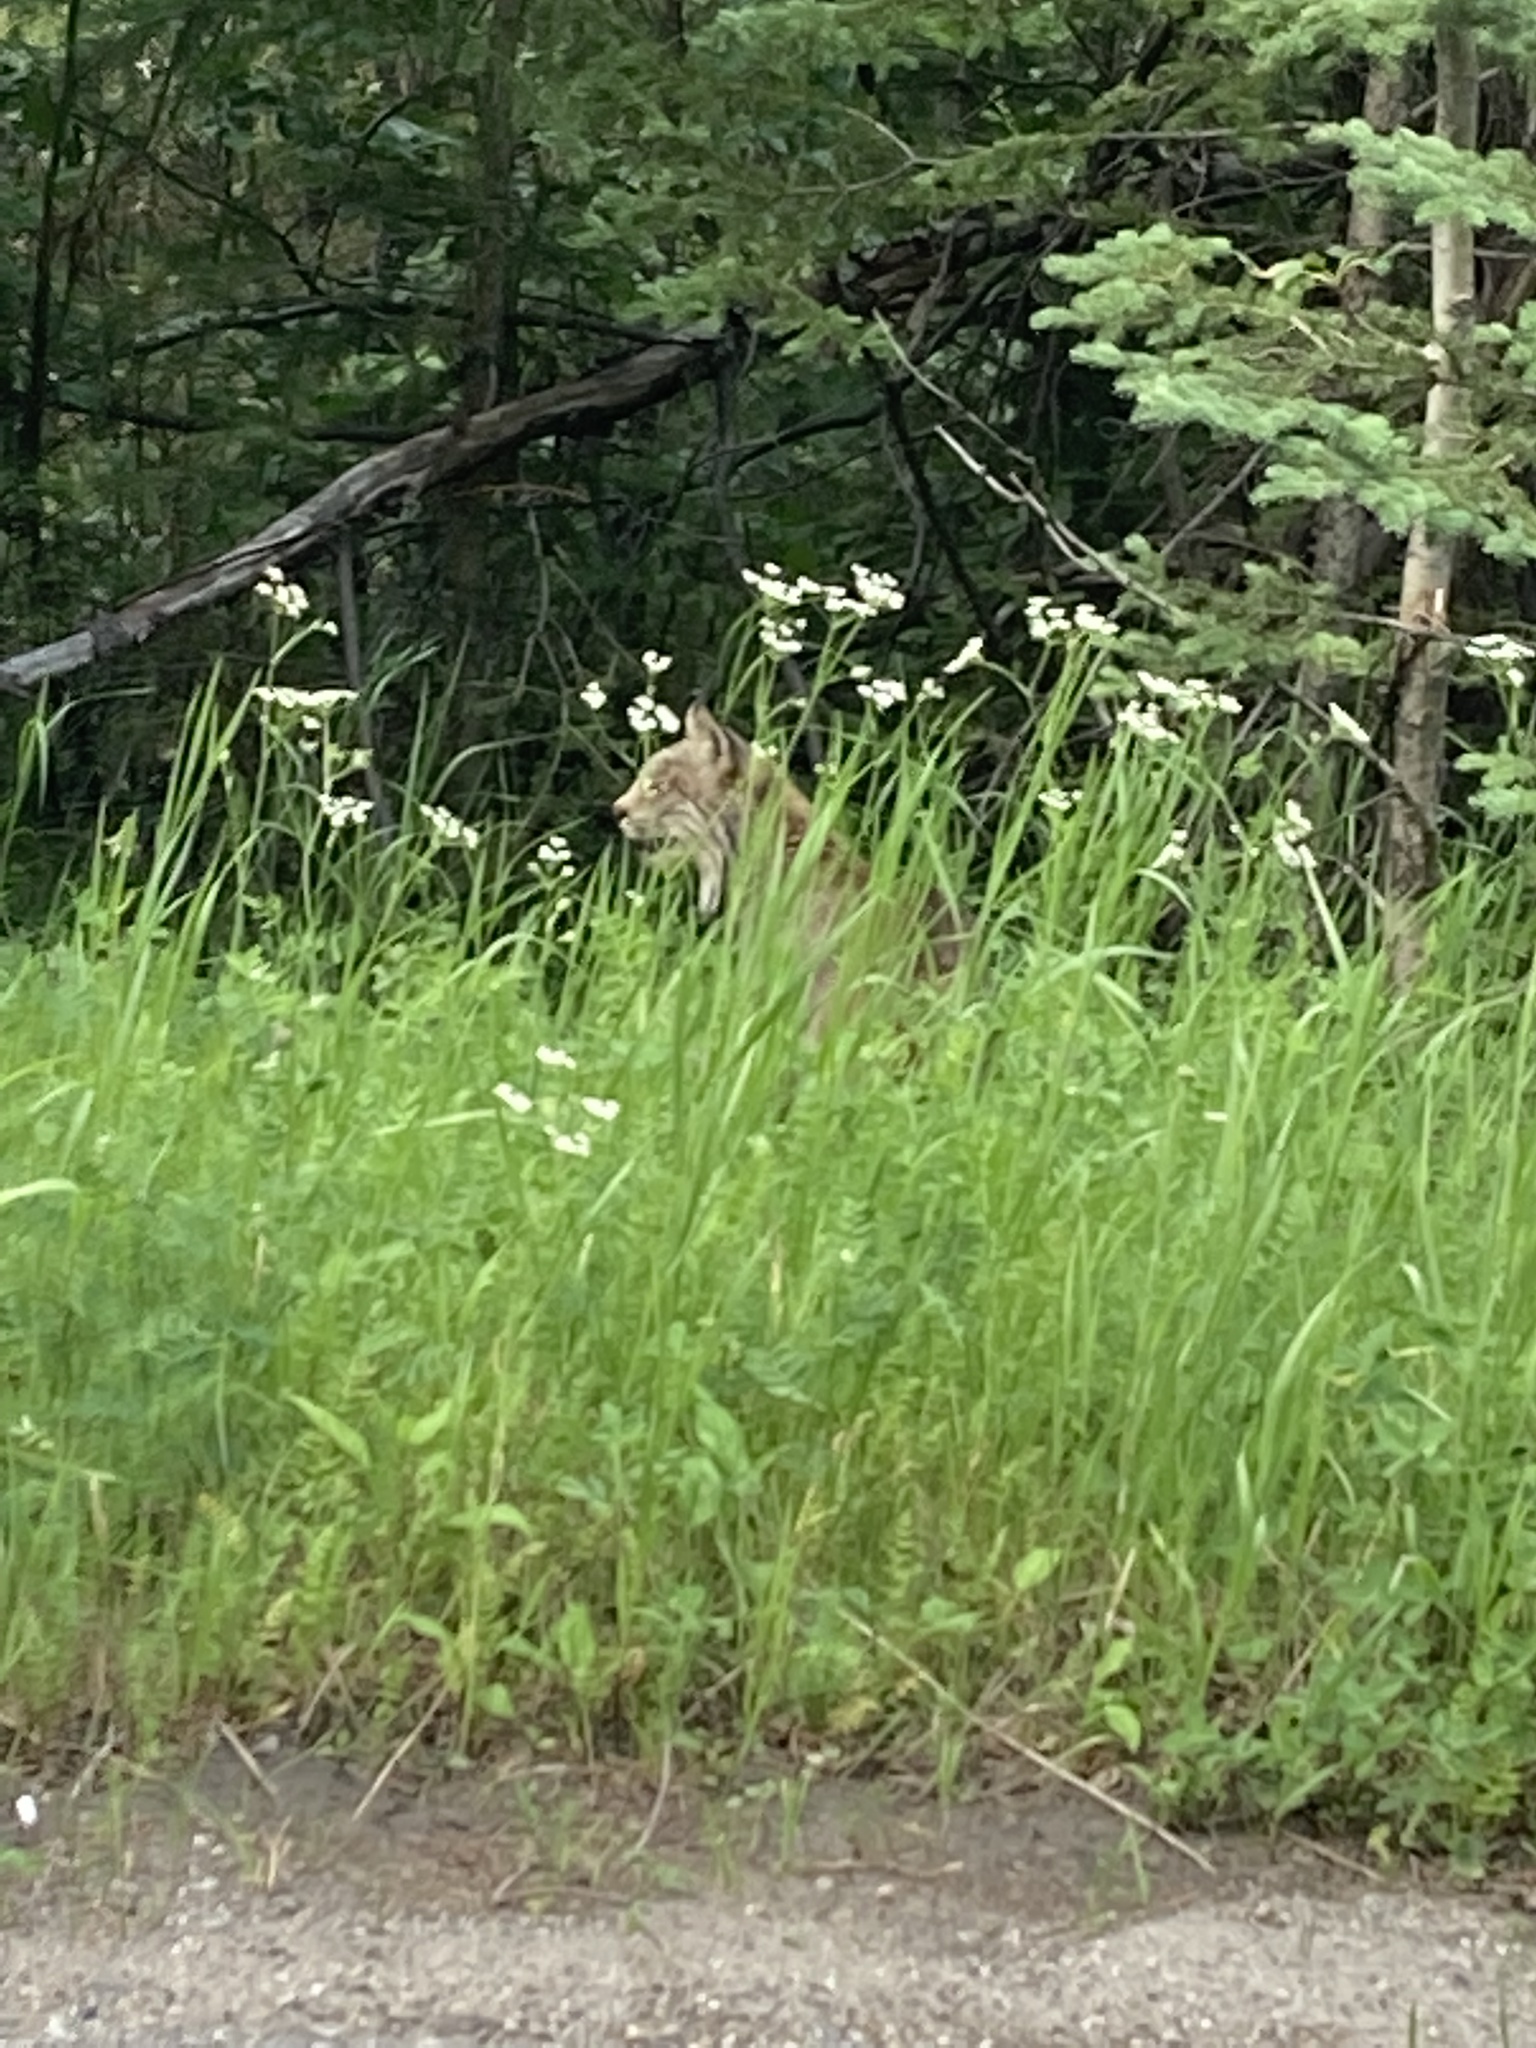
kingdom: Animalia
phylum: Chordata
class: Mammalia
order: Carnivora
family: Felidae
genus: Lynx
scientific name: Lynx canadensis
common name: Canadian lynx
